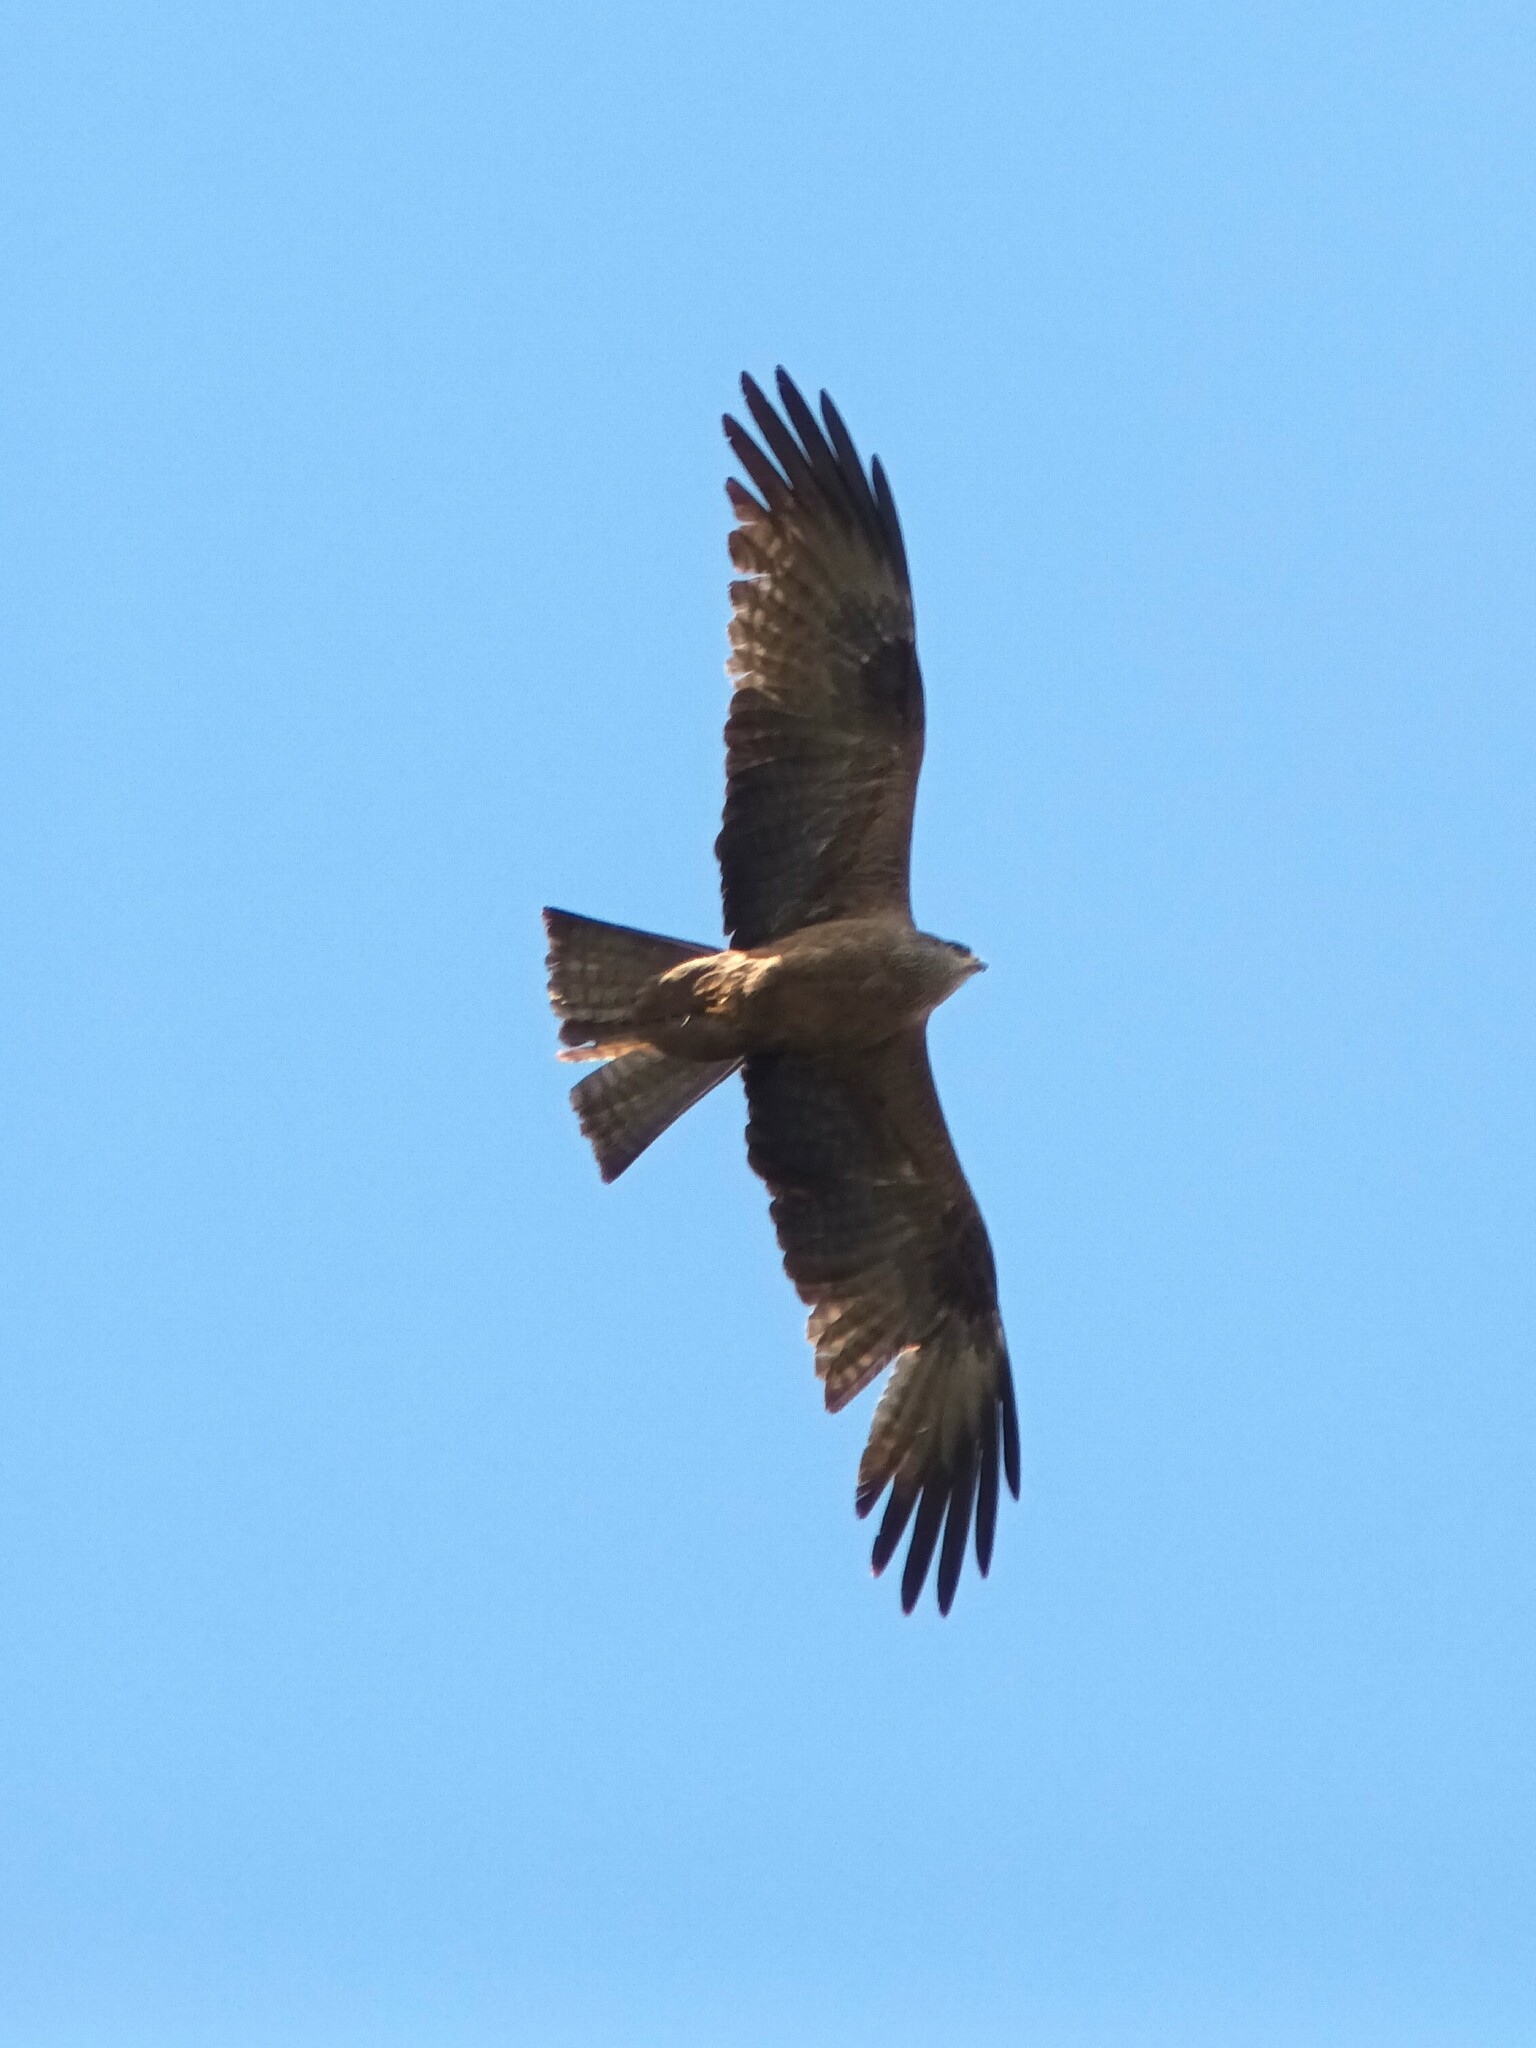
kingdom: Animalia
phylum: Chordata
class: Aves
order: Accipitriformes
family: Accipitridae
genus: Milvus
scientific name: Milvus migrans
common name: Black kite
